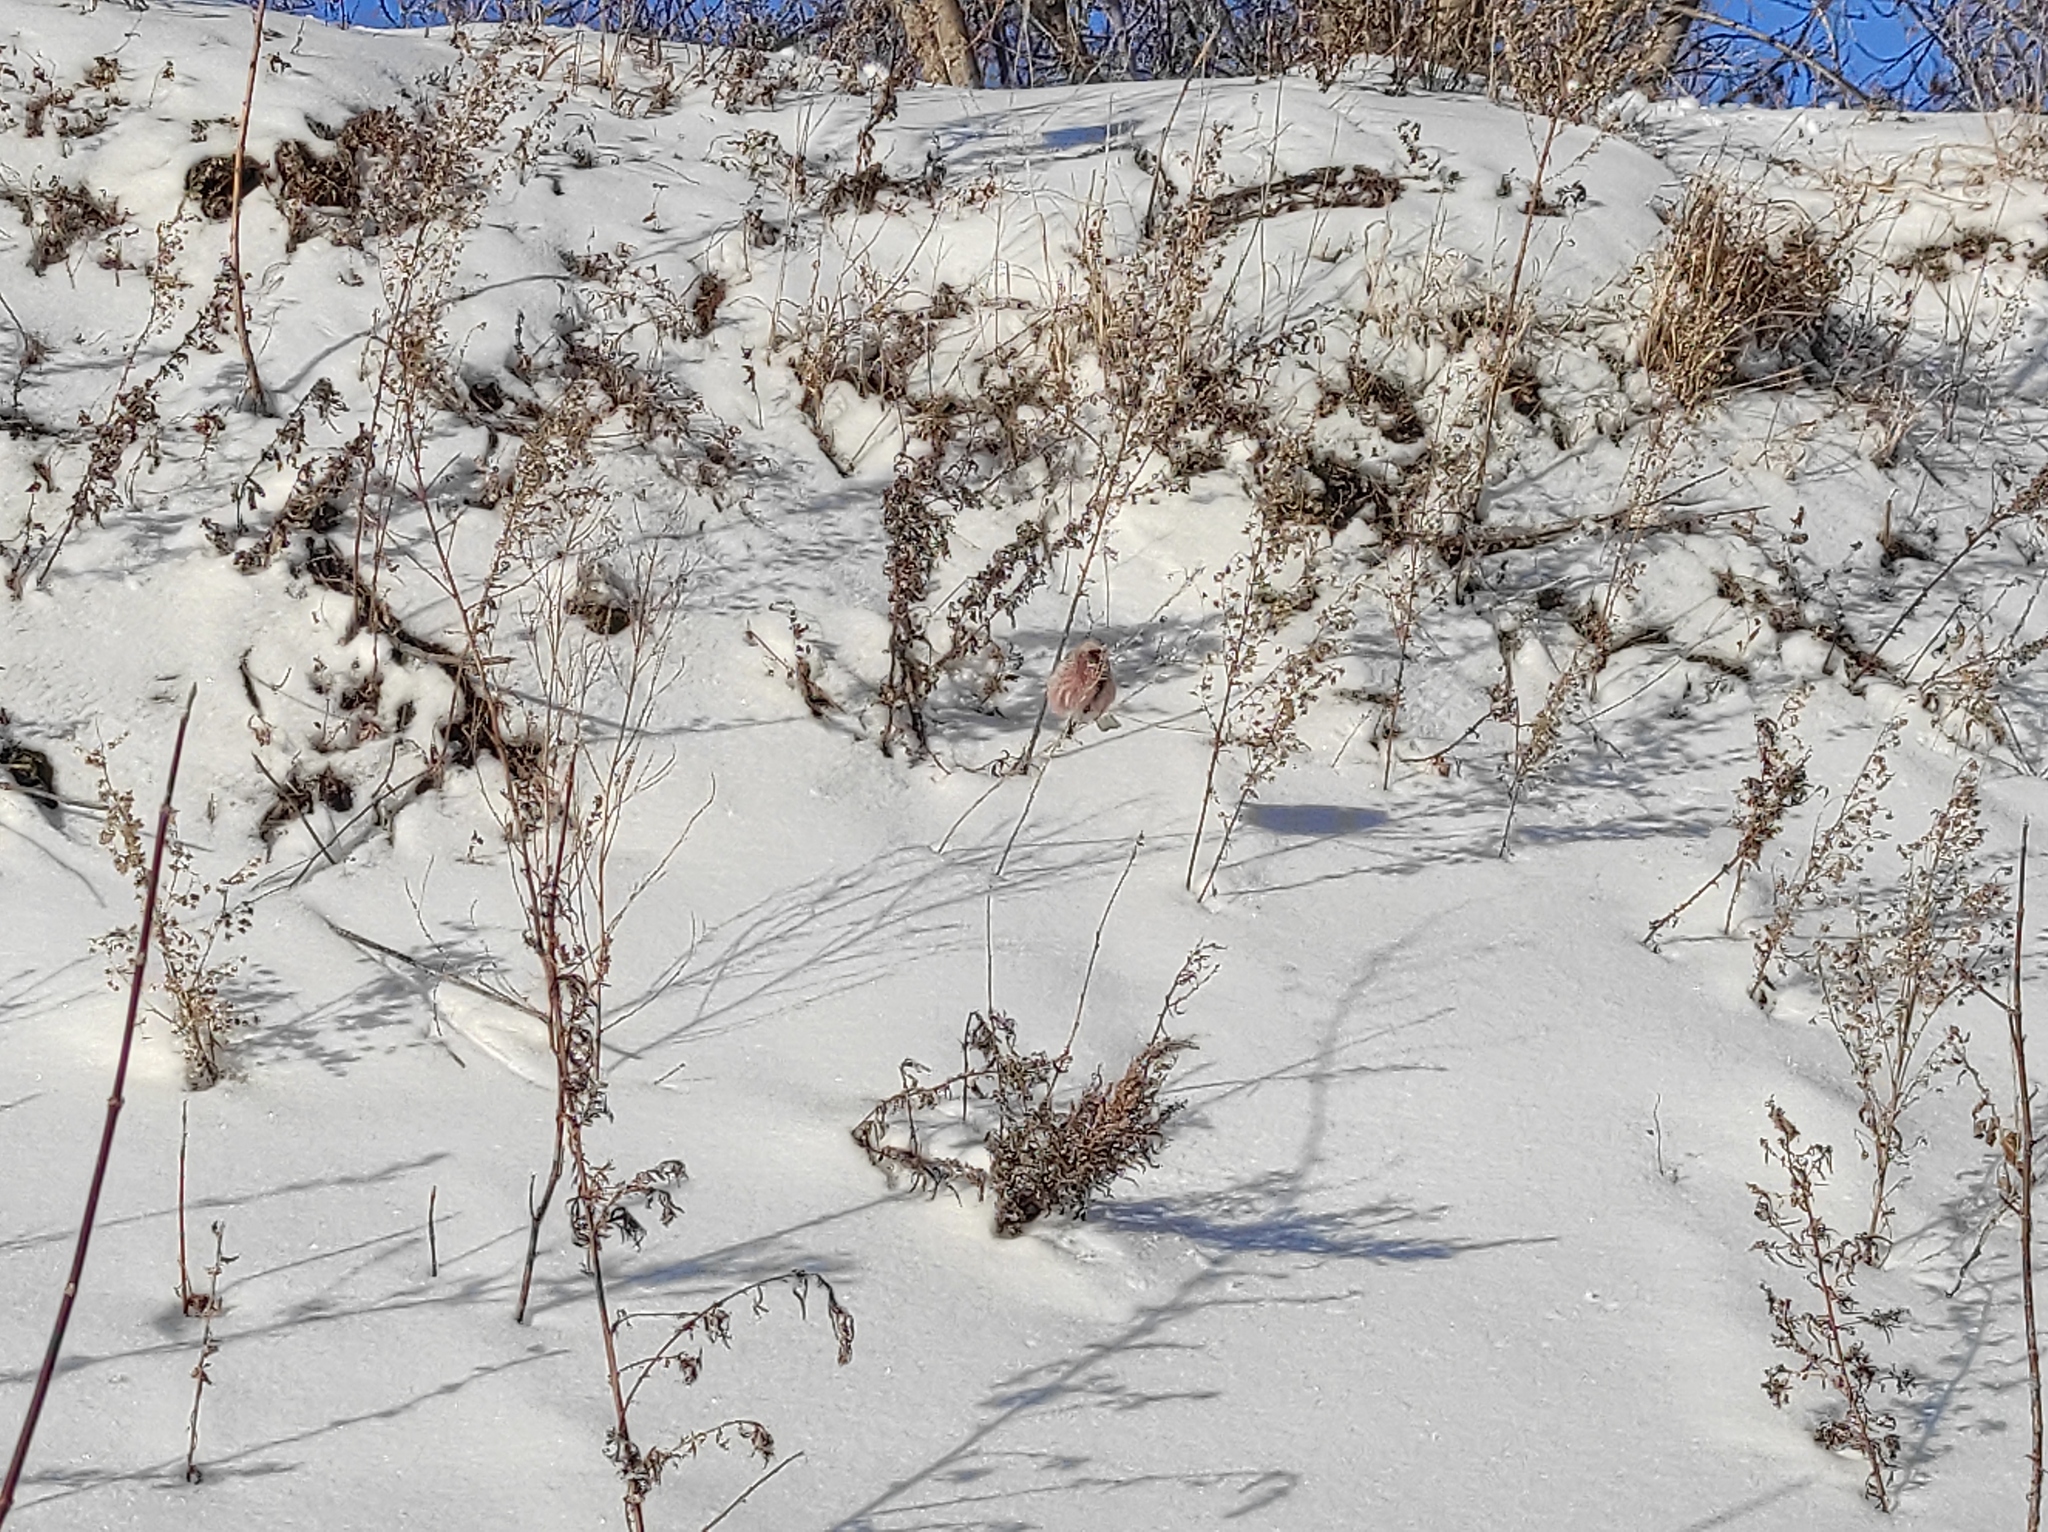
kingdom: Animalia
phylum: Chordata
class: Aves
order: Passeriformes
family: Fringillidae
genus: Carpodacus
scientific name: Carpodacus sibiricus
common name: Long-tailed rosefinch
